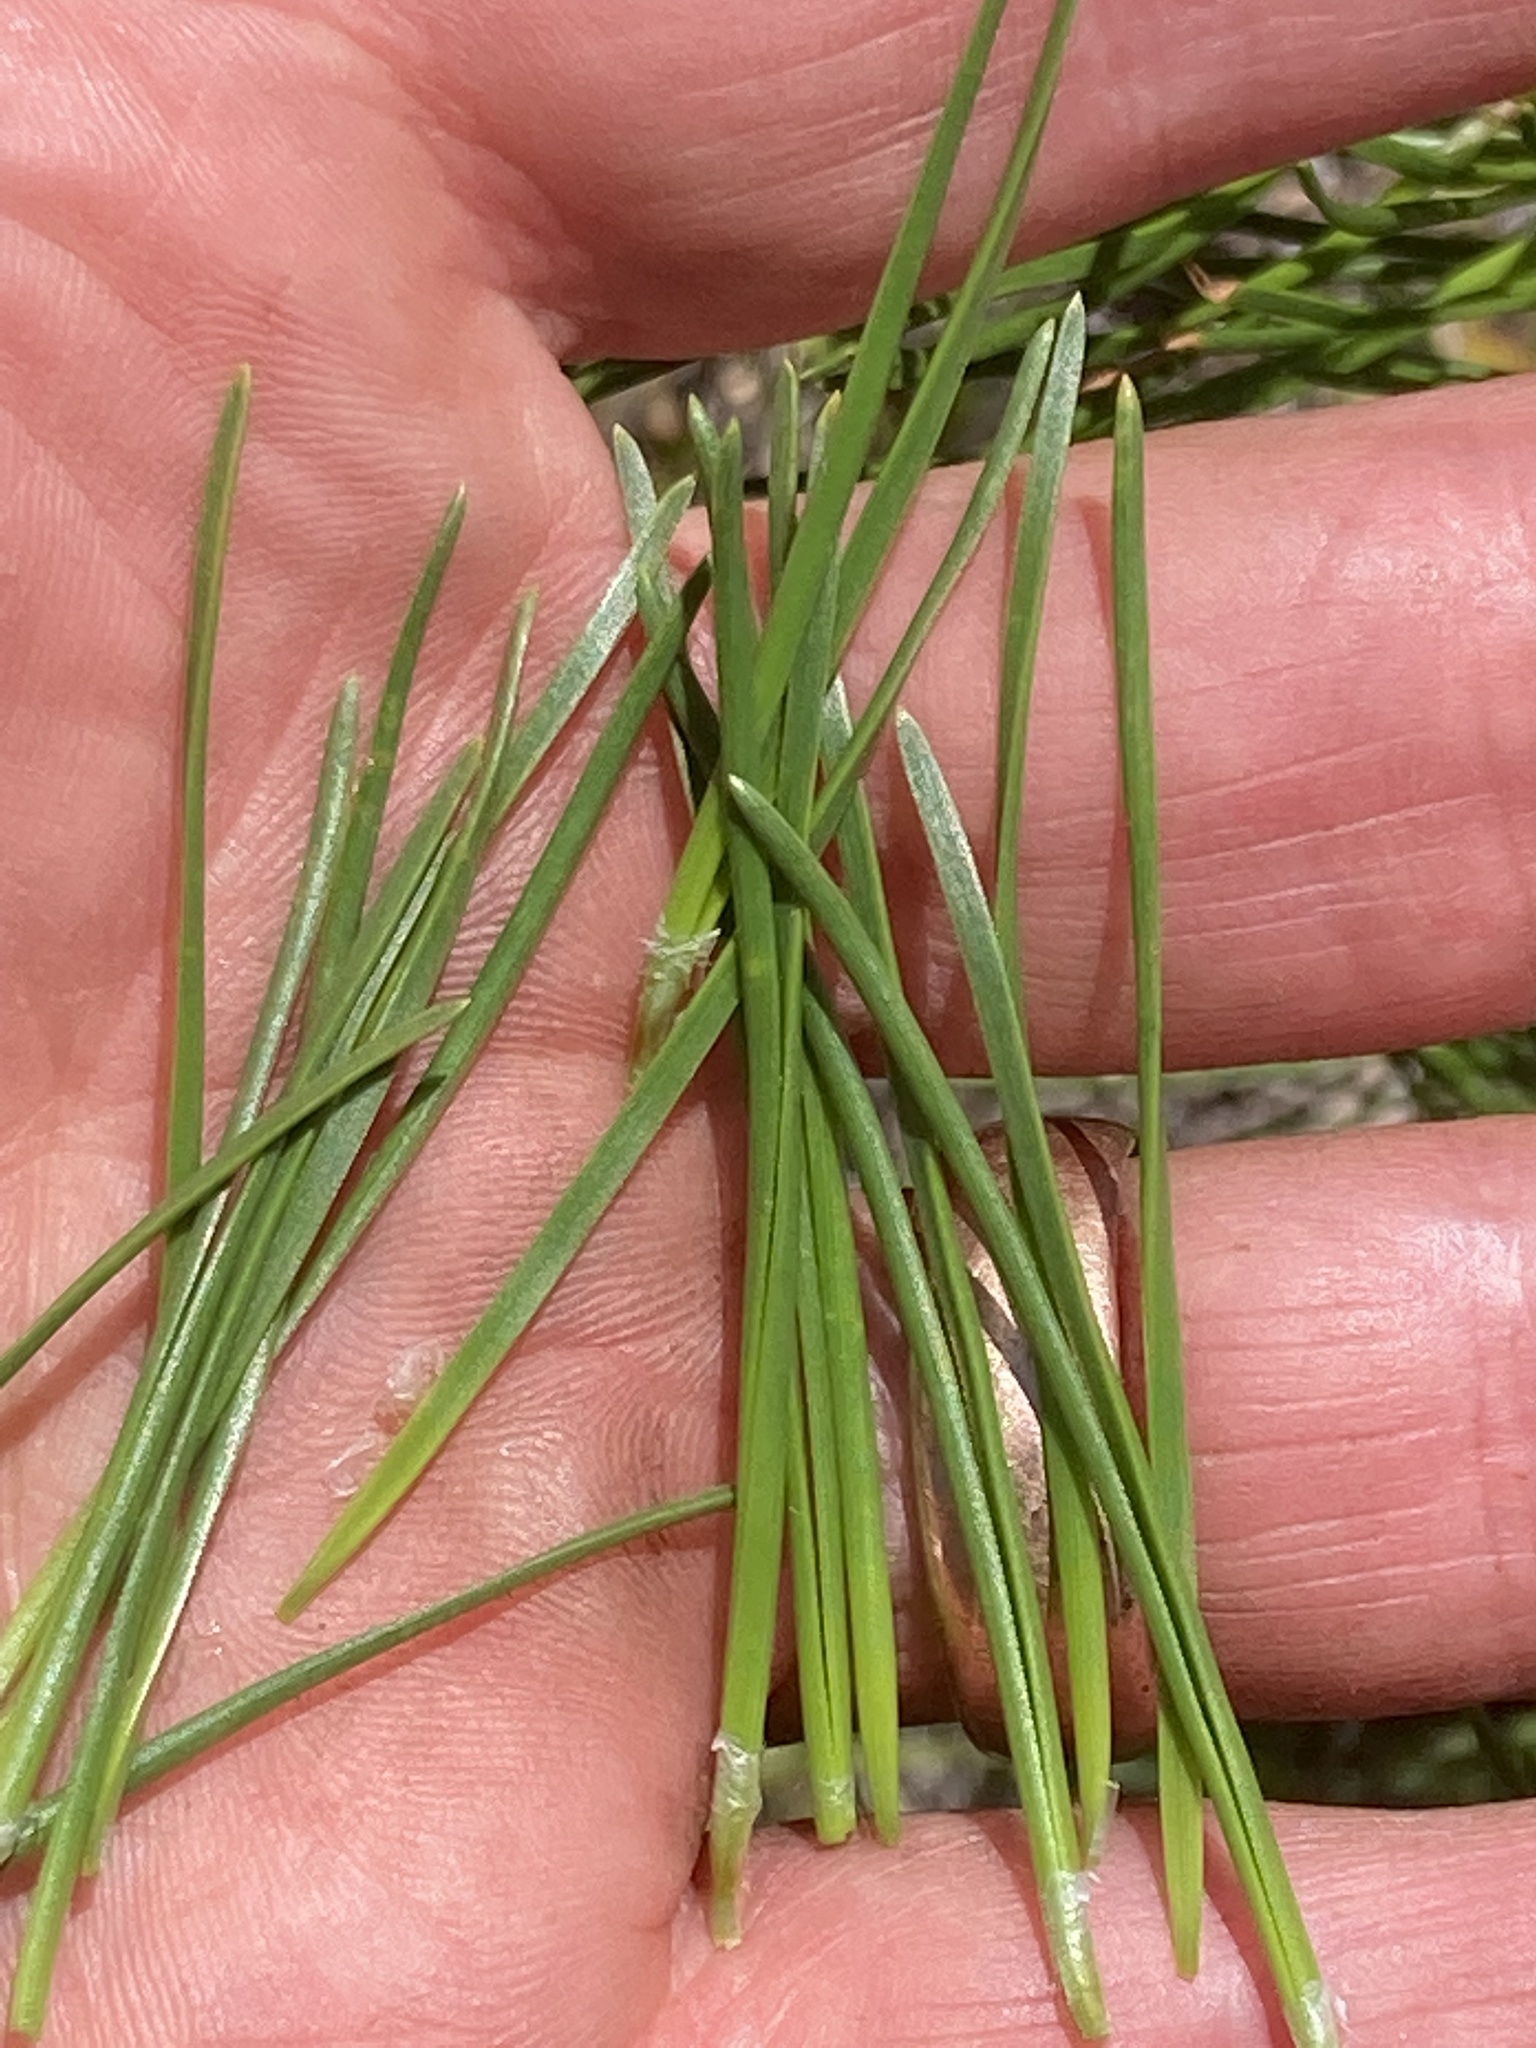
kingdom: Plantae
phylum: Tracheophyta
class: Pinopsida
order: Pinales
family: Pinaceae
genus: Pinus
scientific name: Pinus contorta
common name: Lodgepole pine
